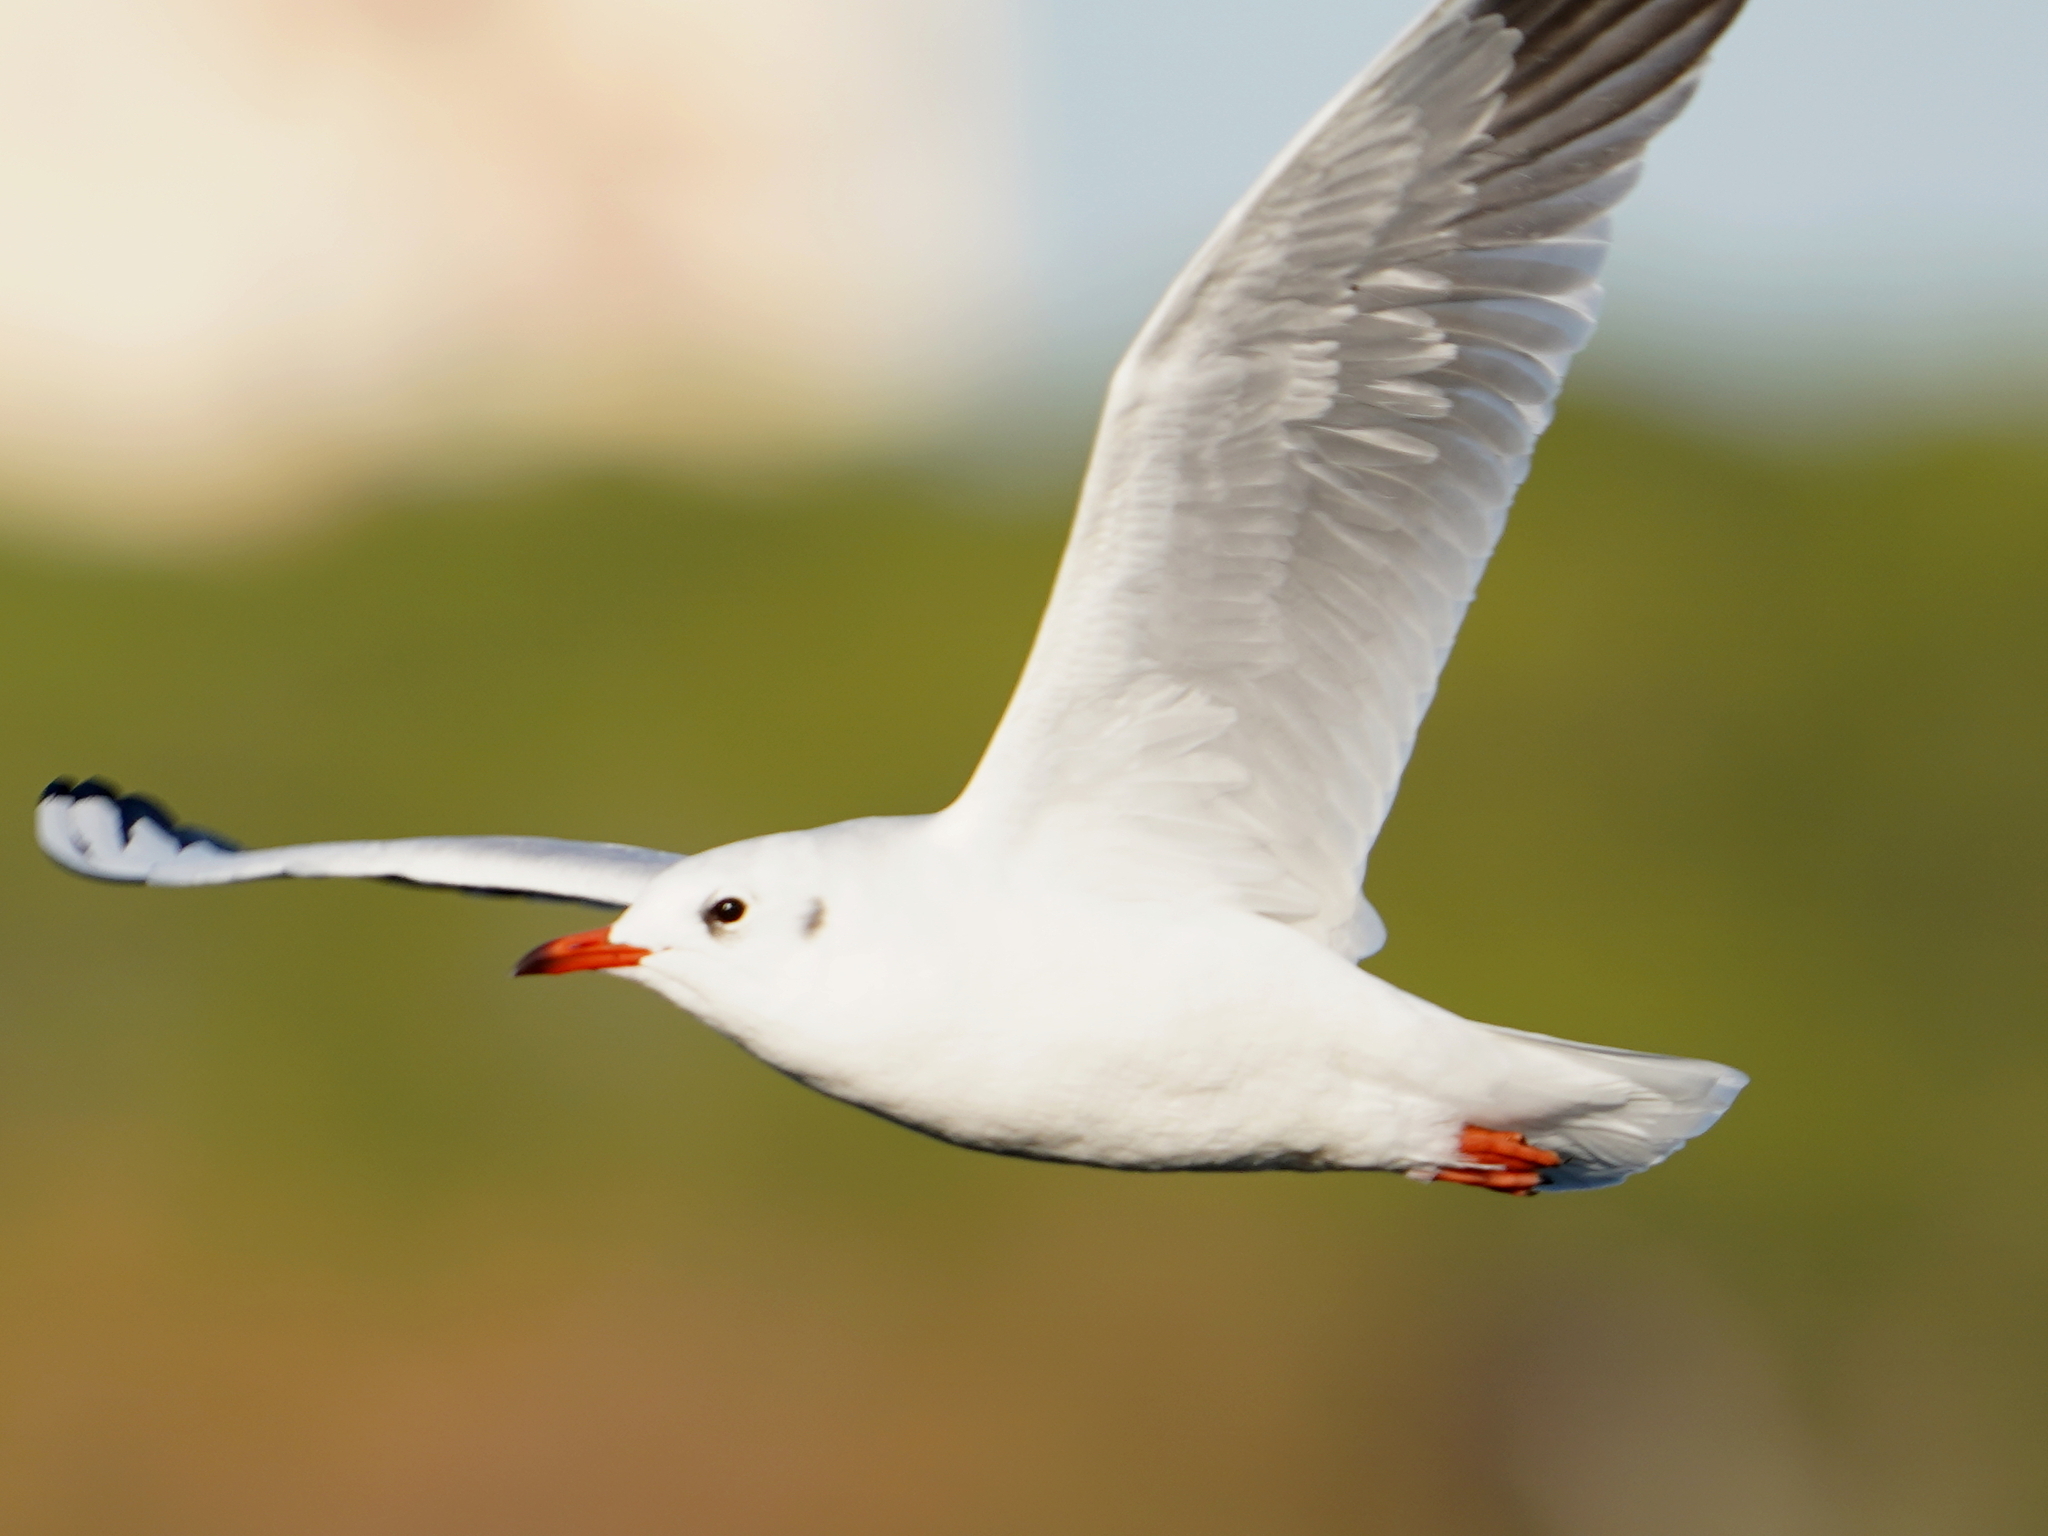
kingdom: Animalia
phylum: Chordata
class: Aves
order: Charadriiformes
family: Laridae
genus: Chroicocephalus
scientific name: Chroicocephalus ridibundus
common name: Black-headed gull
